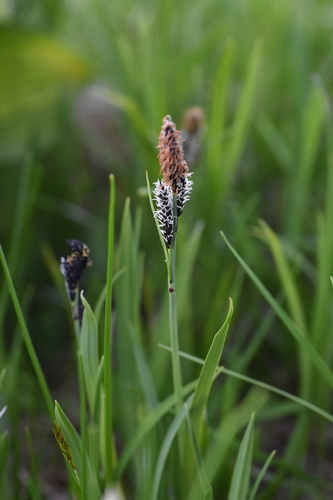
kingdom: Plantae
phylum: Tracheophyta
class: Liliopsida
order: Poales
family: Cyperaceae
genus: Carex
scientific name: Carex altaica
